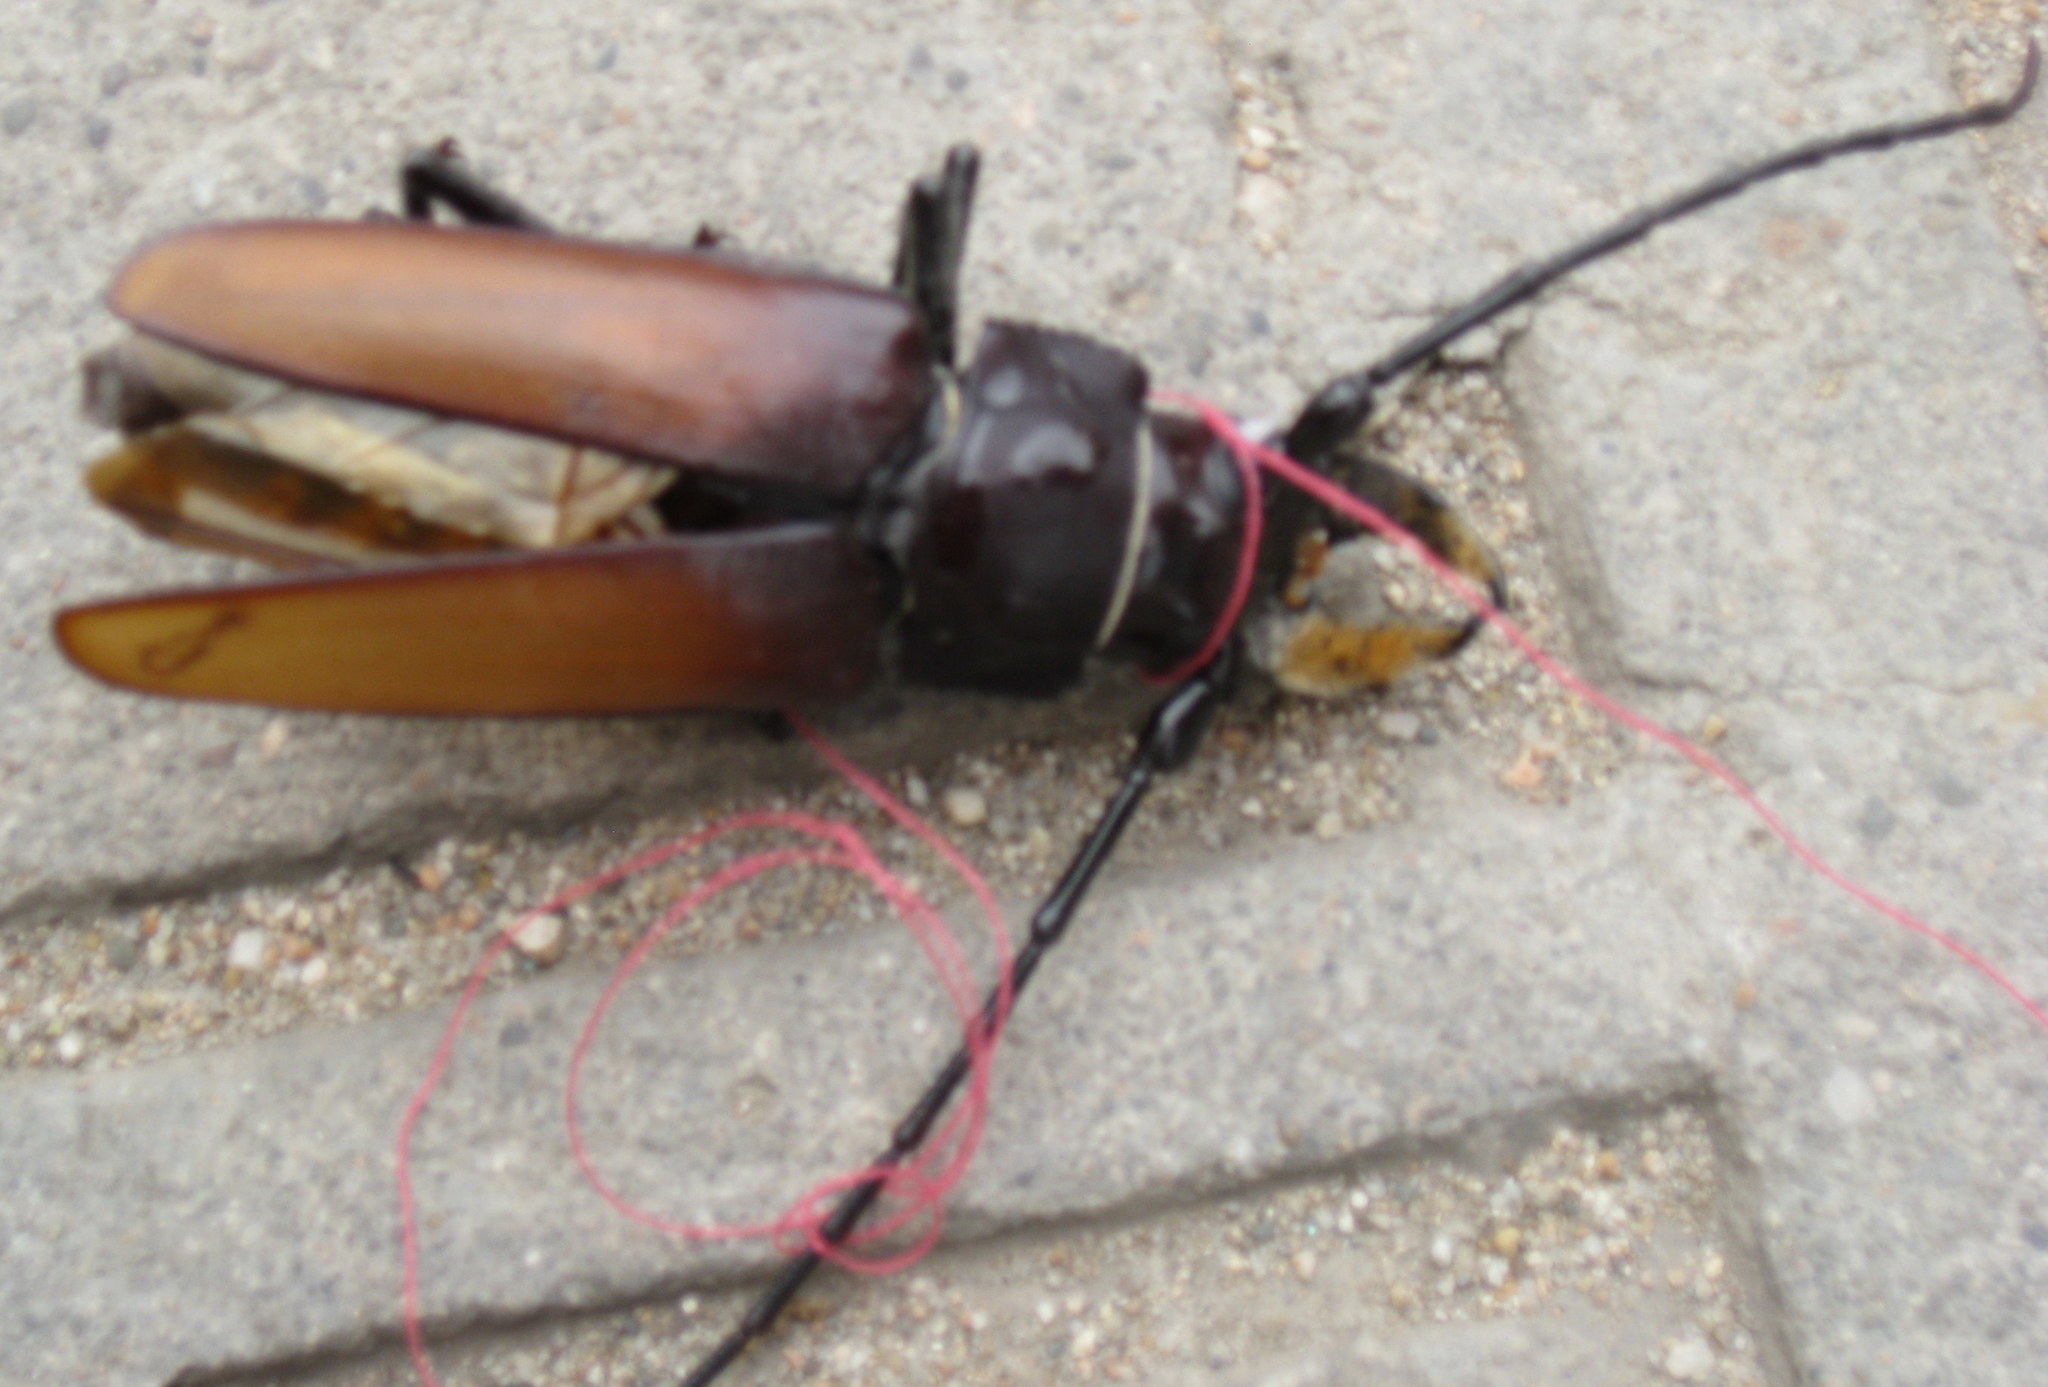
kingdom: Animalia
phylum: Arthropoda
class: Insecta
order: Coleoptera
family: Cerambycidae
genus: Callipogon
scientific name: Callipogon senex
